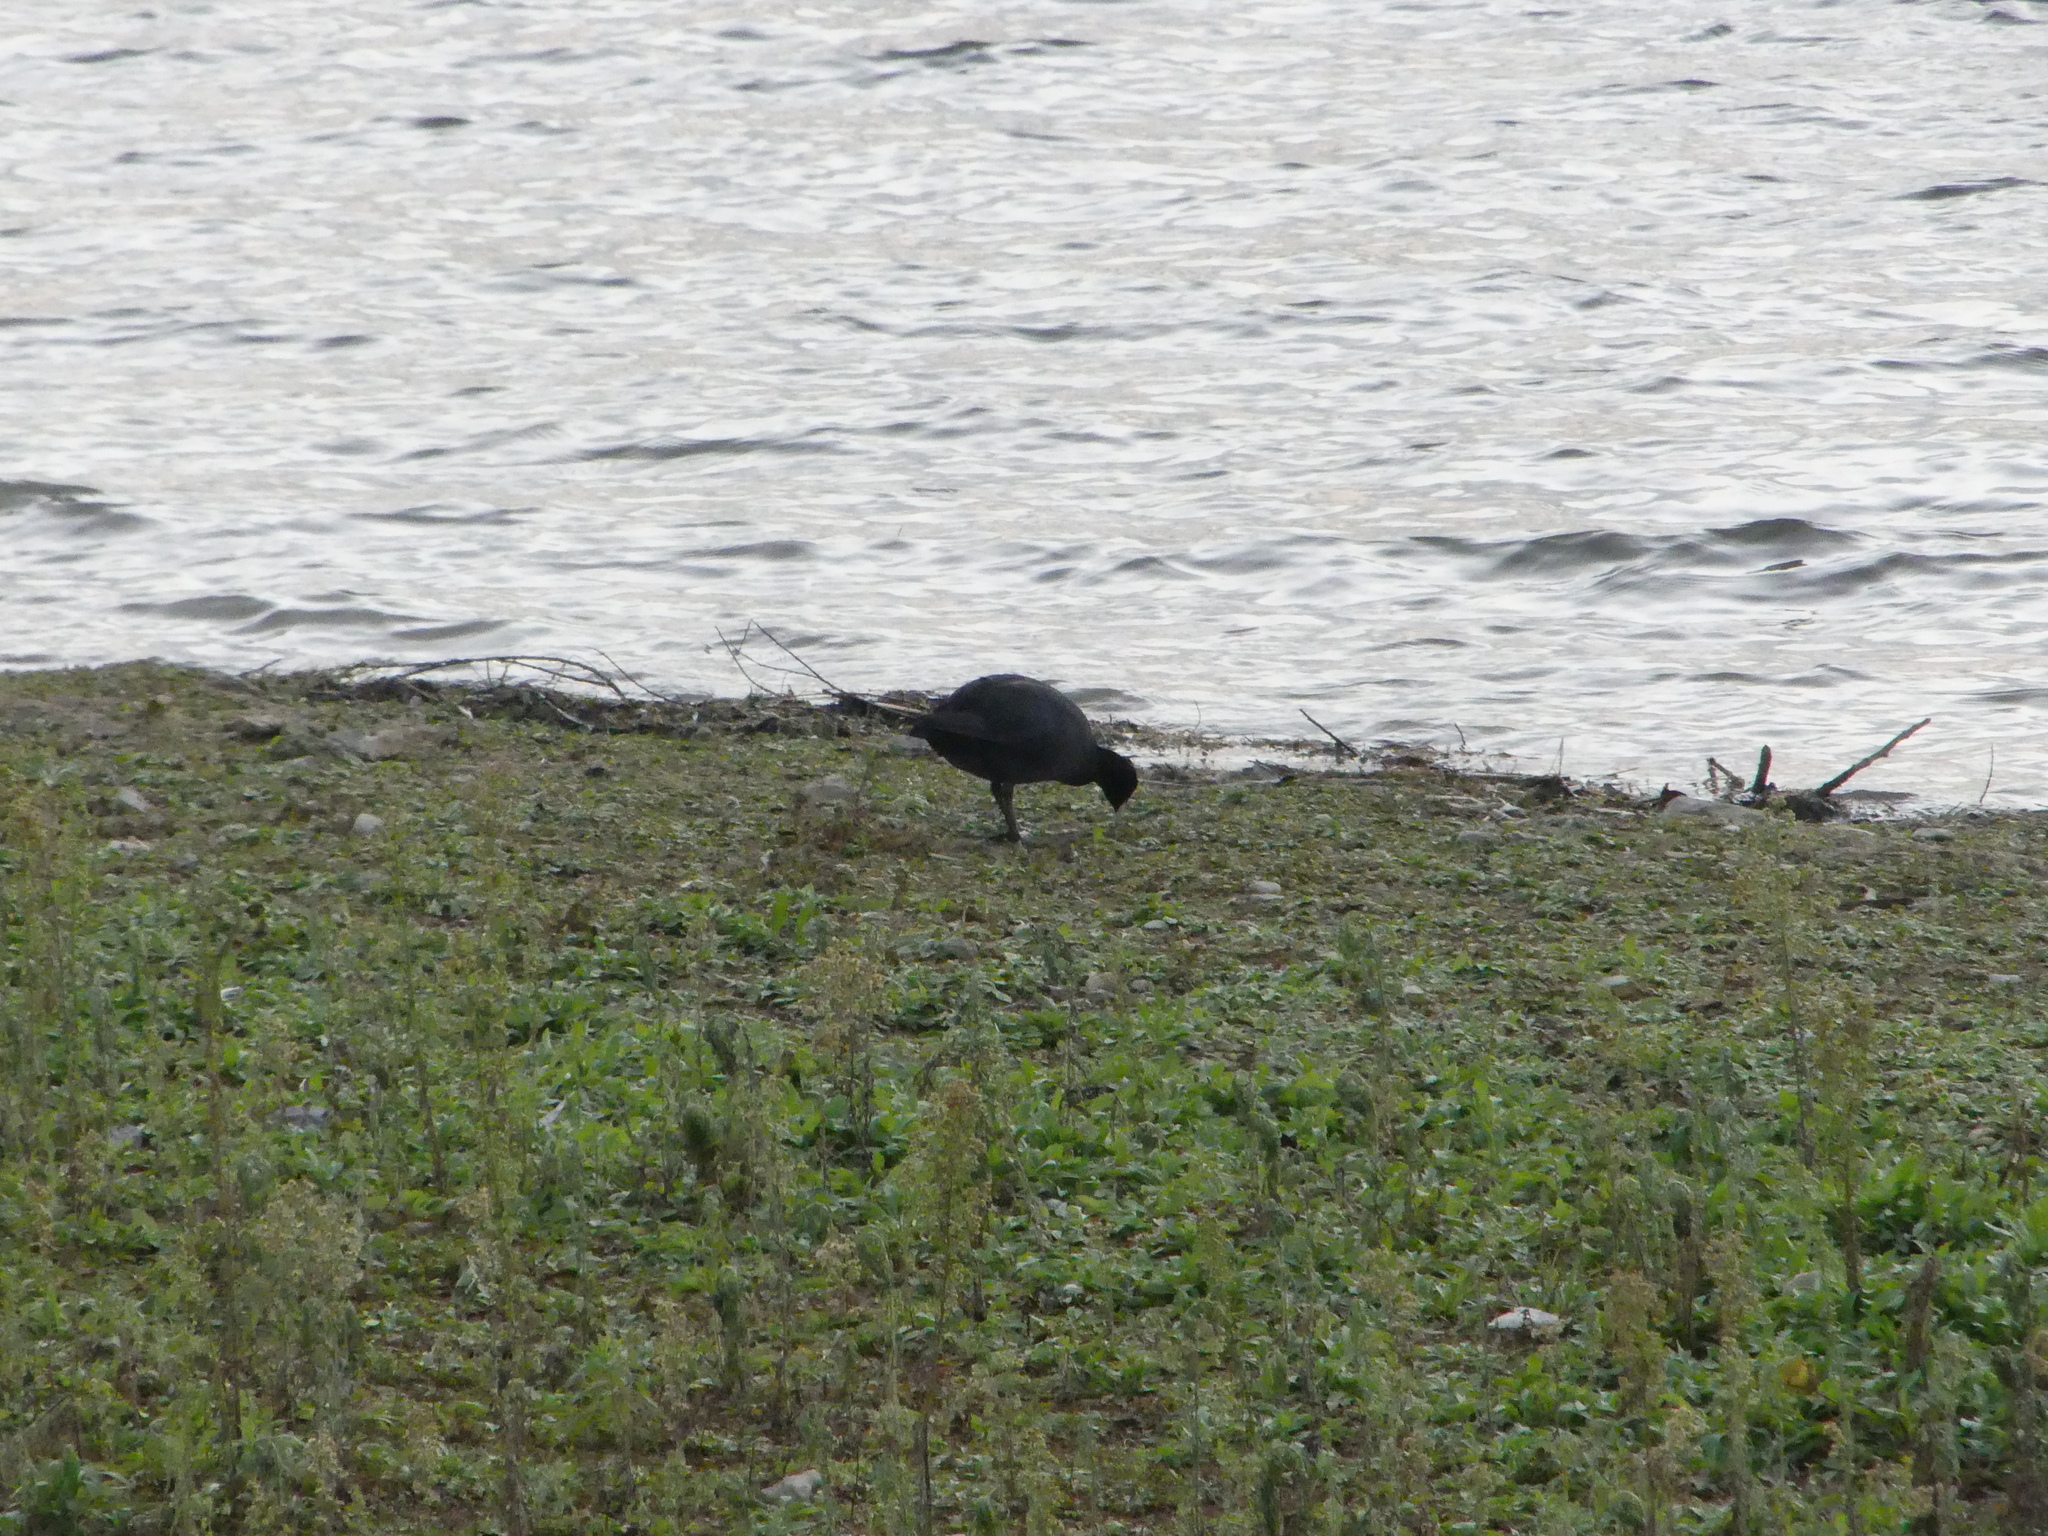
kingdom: Animalia
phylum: Chordata
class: Aves
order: Gruiformes
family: Rallidae
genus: Fulica
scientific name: Fulica atra
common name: Eurasian coot
